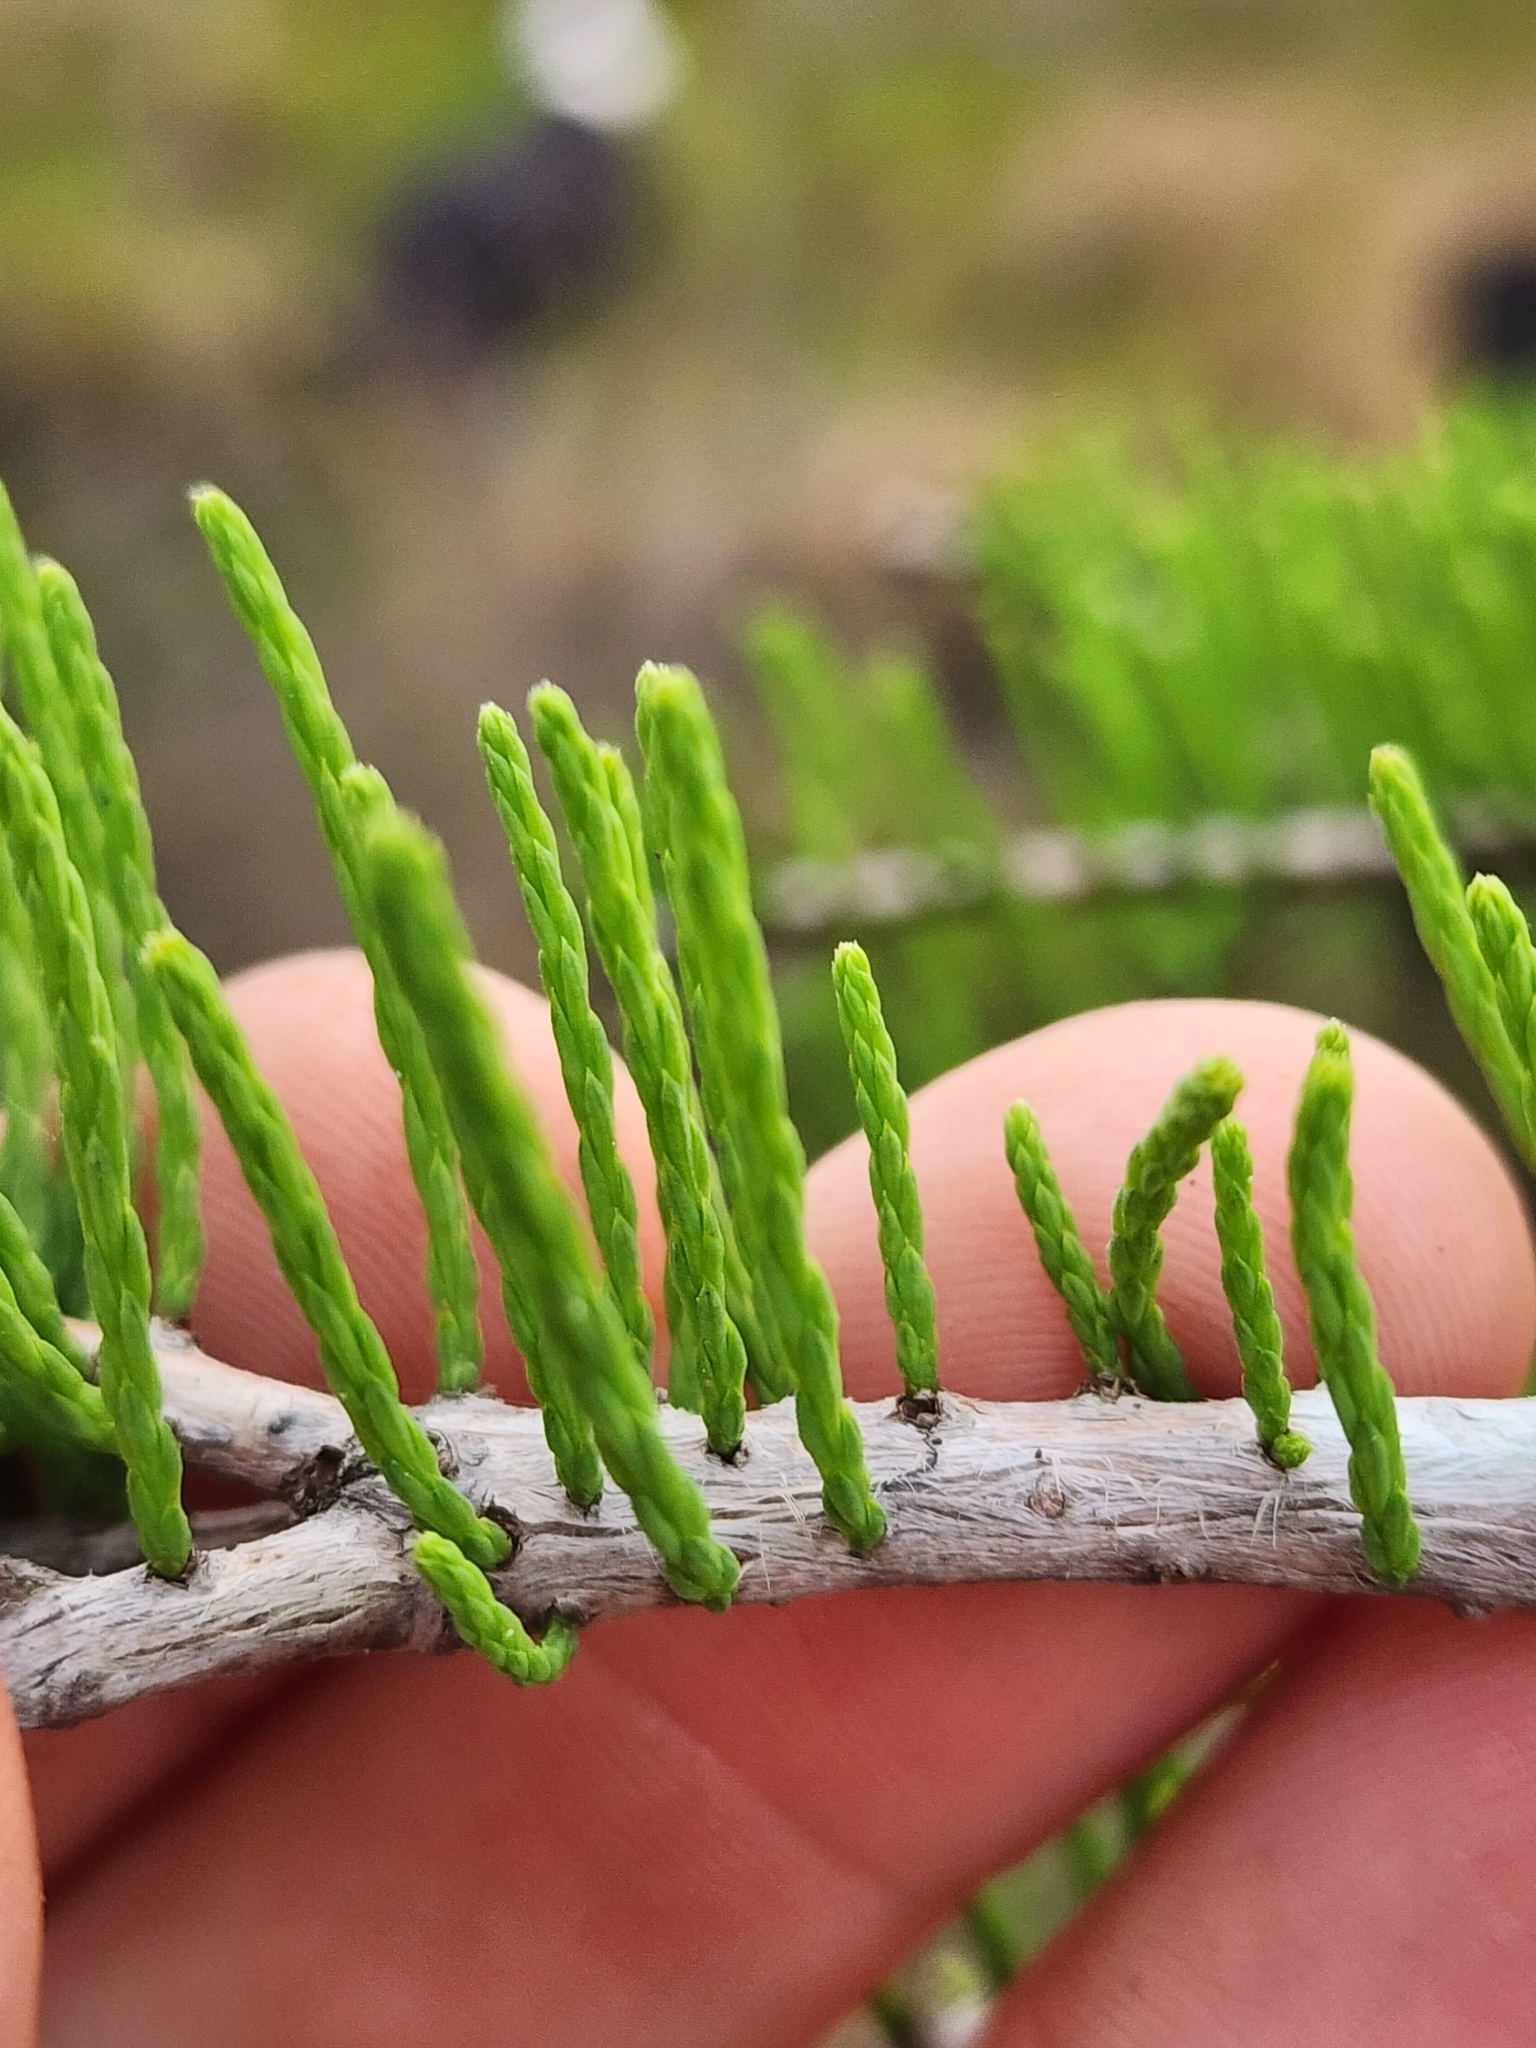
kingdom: Plantae
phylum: Tracheophyta
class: Pinopsida
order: Pinales
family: Cupressaceae
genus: Taxodium
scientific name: Taxodium distichum
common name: Bald cypress
